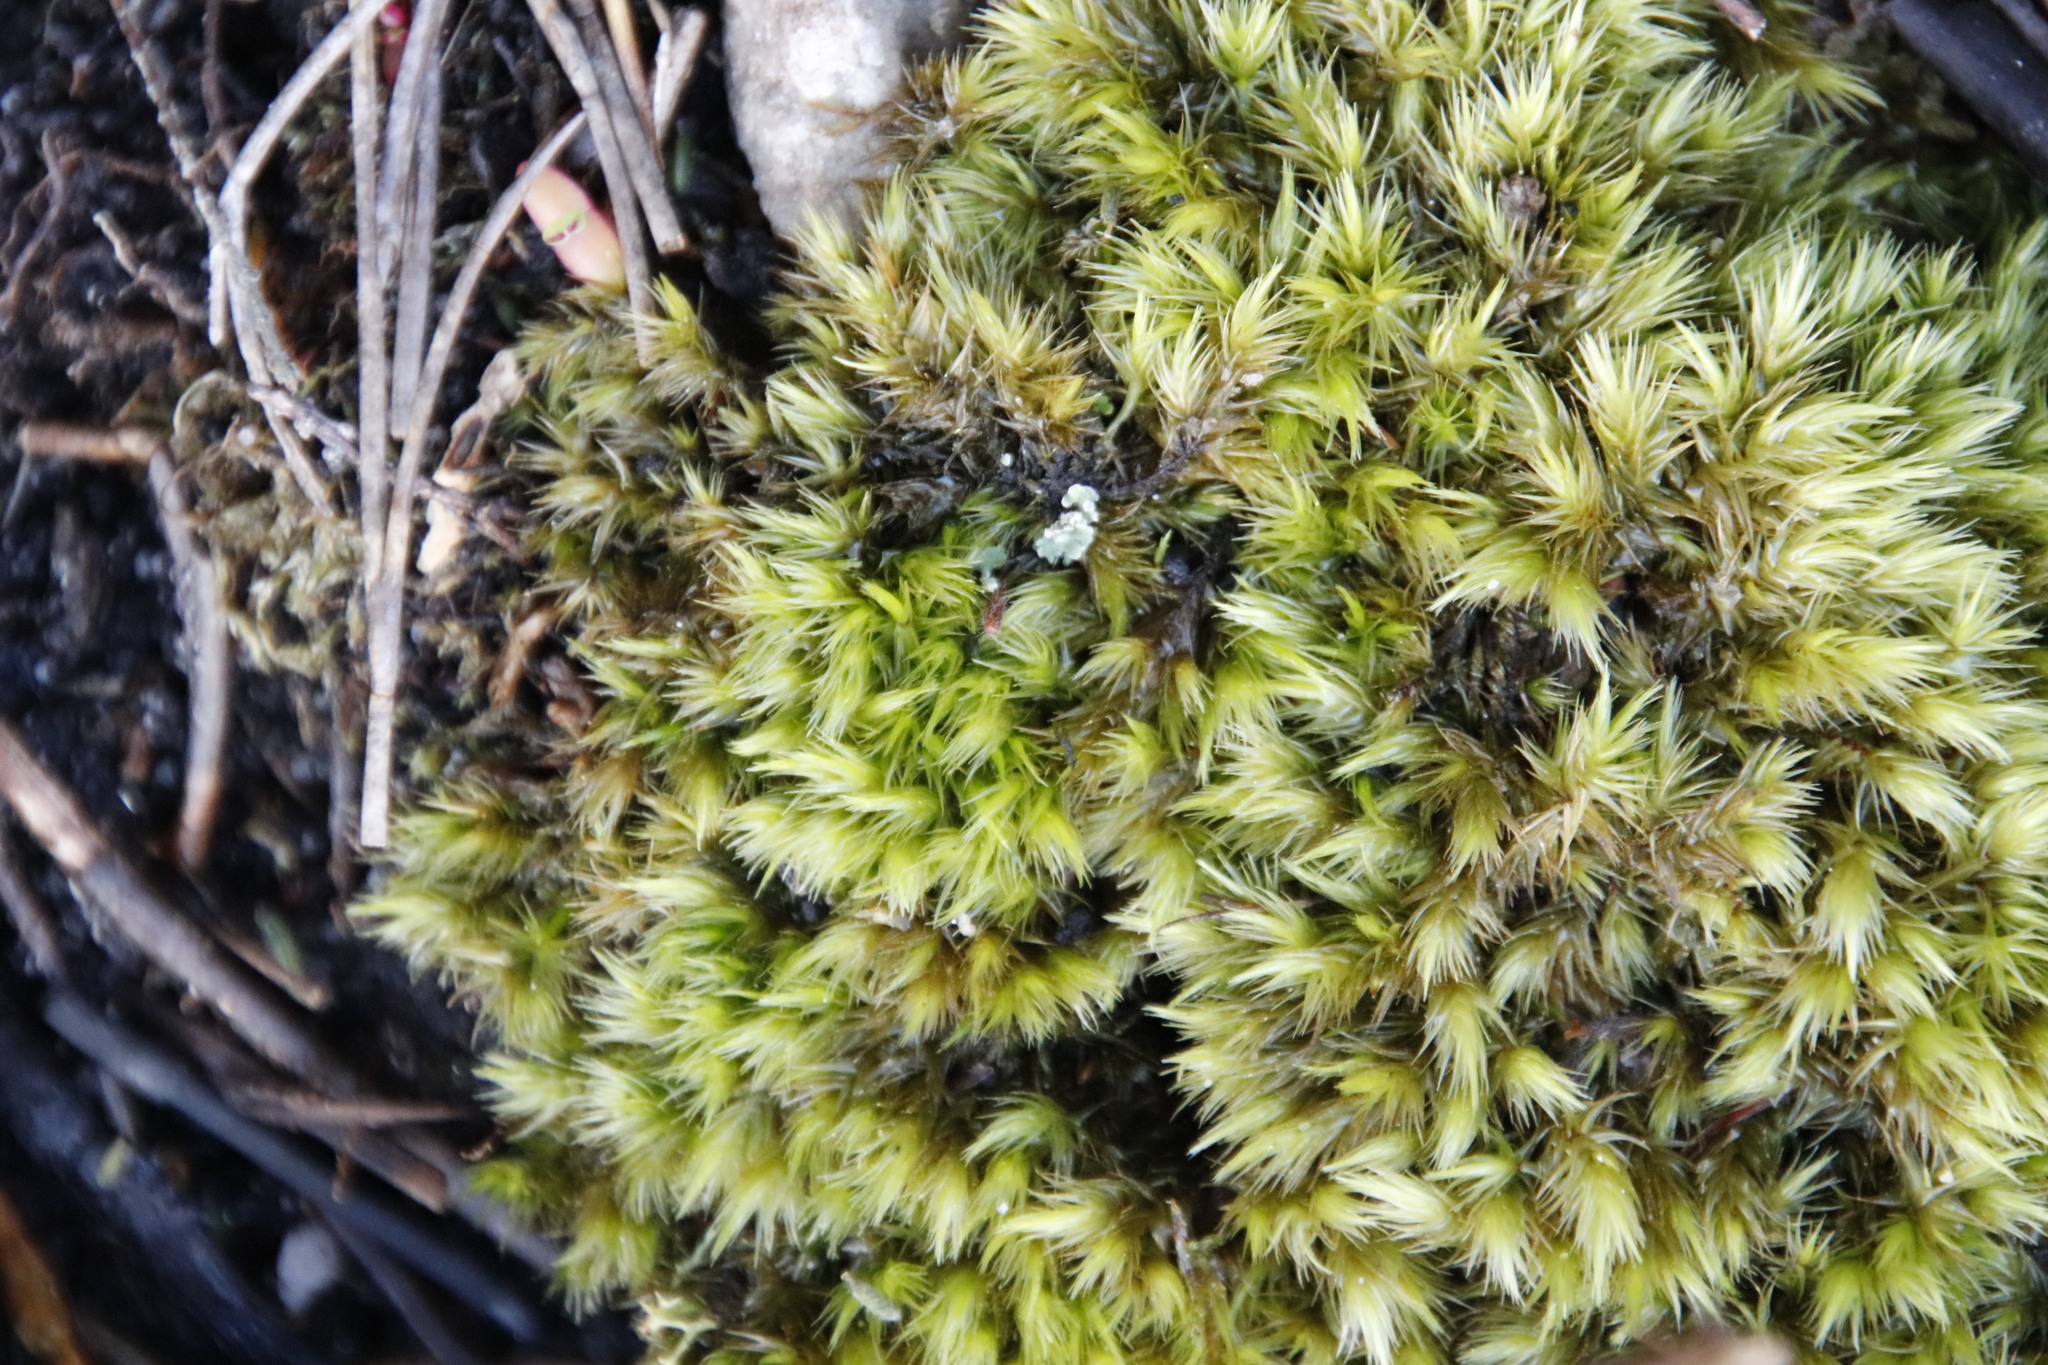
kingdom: Plantae
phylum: Bryophyta
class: Bryopsida
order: Dicranales
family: Dicranaceae
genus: Dicranoloma
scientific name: Dicranoloma billardieri
